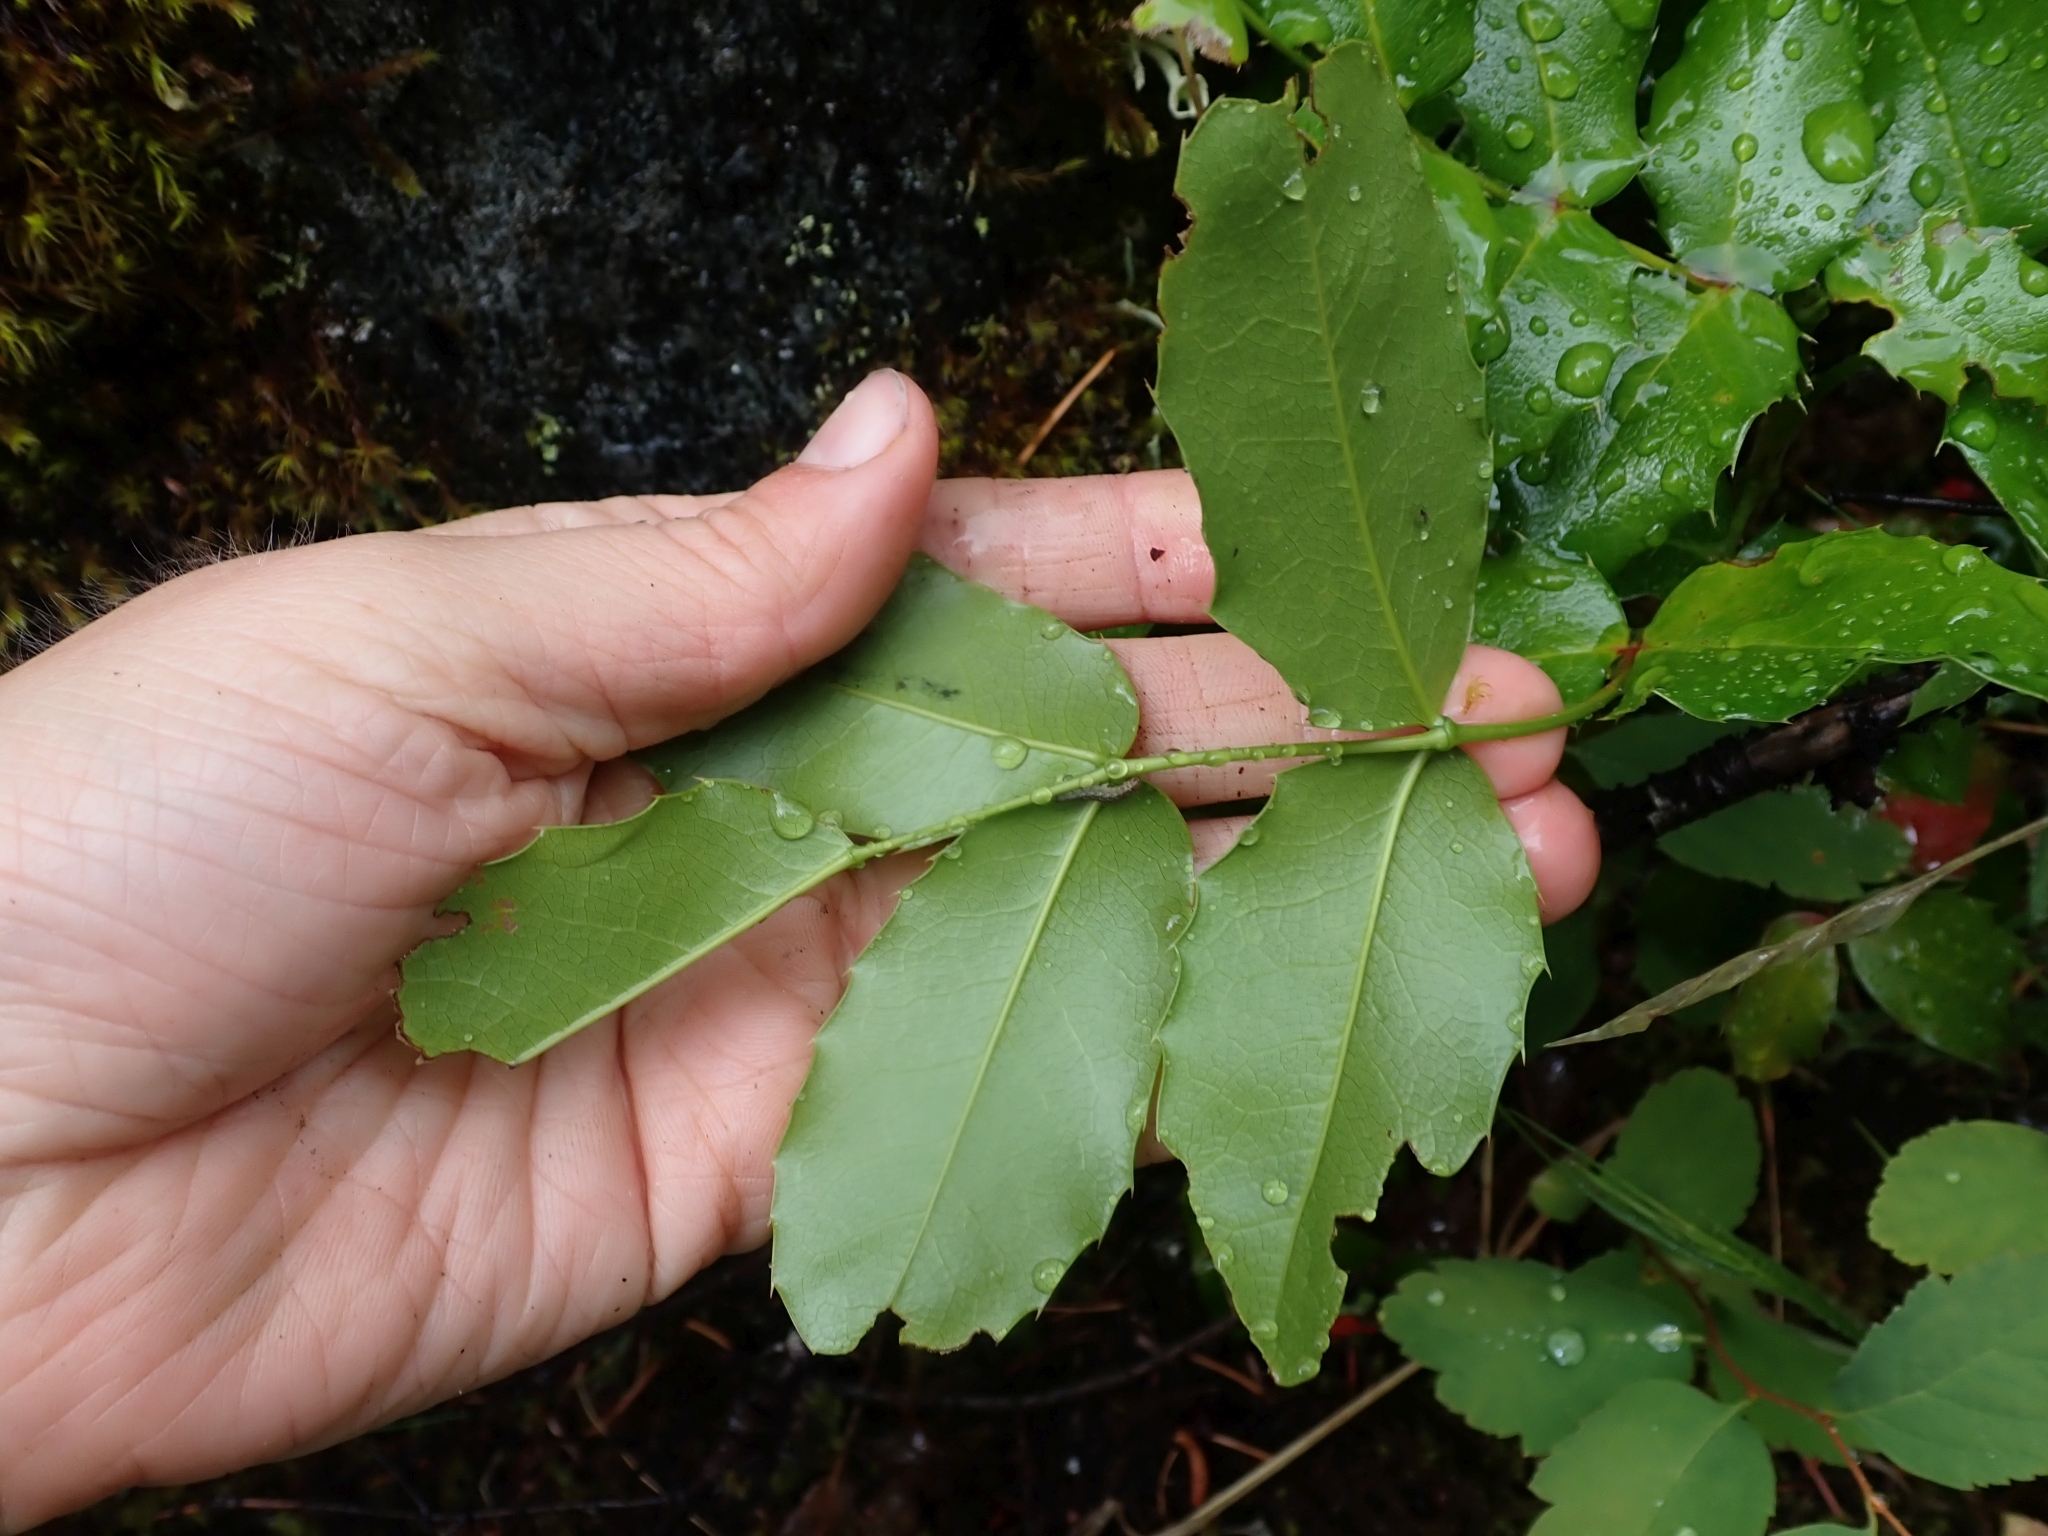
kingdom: Plantae
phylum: Tracheophyta
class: Magnoliopsida
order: Ranunculales
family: Berberidaceae
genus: Mahonia
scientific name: Mahonia aquifolium
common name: Oregon-grape
